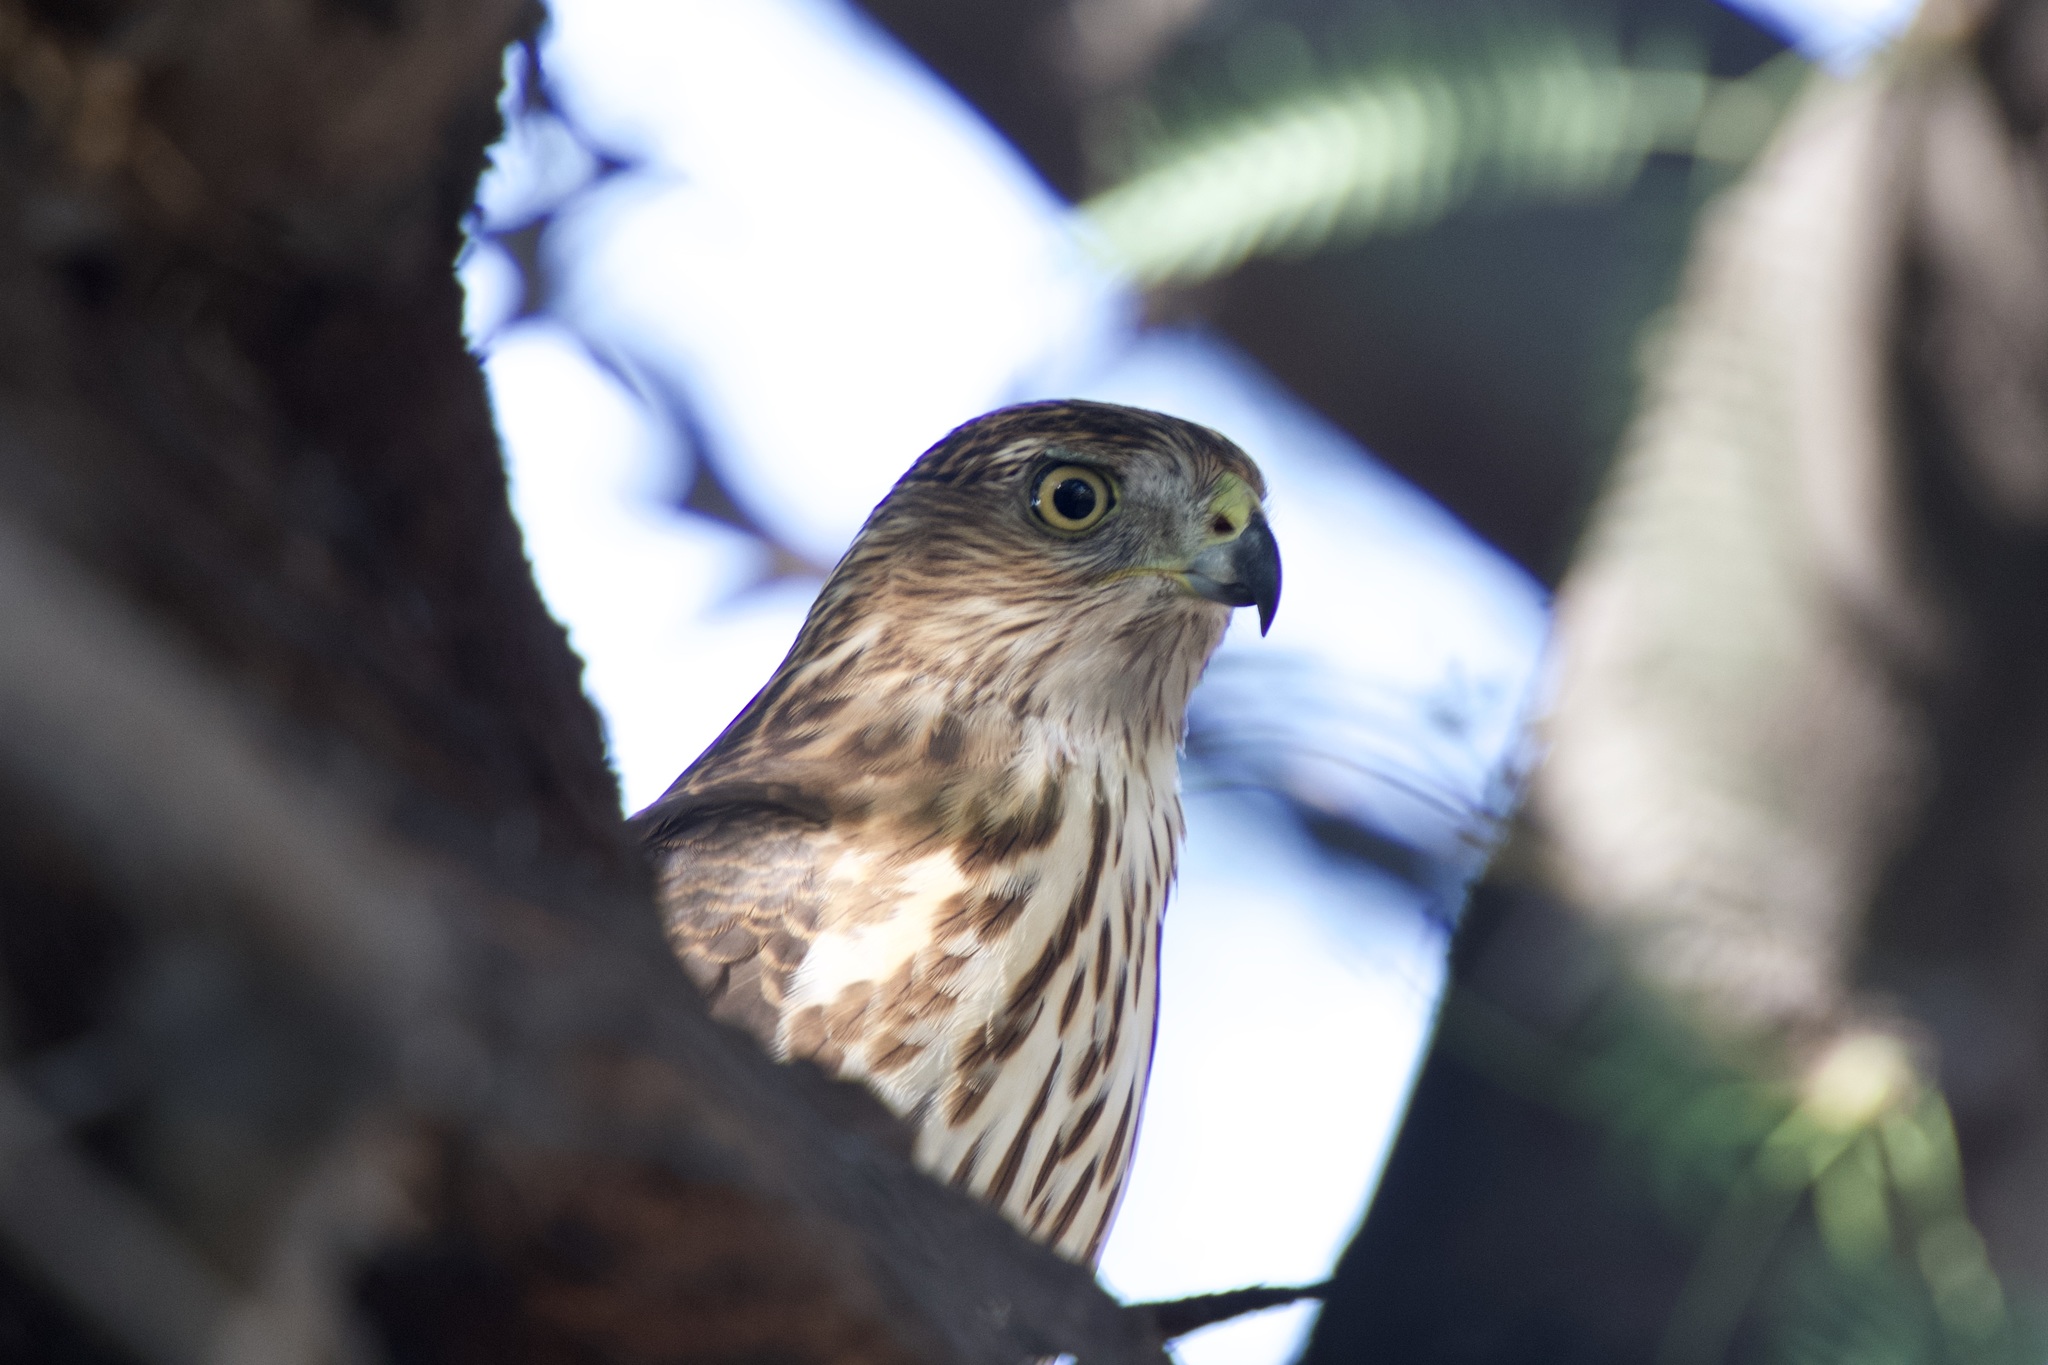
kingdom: Animalia
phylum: Chordata
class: Aves
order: Accipitriformes
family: Accipitridae
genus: Accipiter
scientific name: Accipiter cooperii
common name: Cooper's hawk
